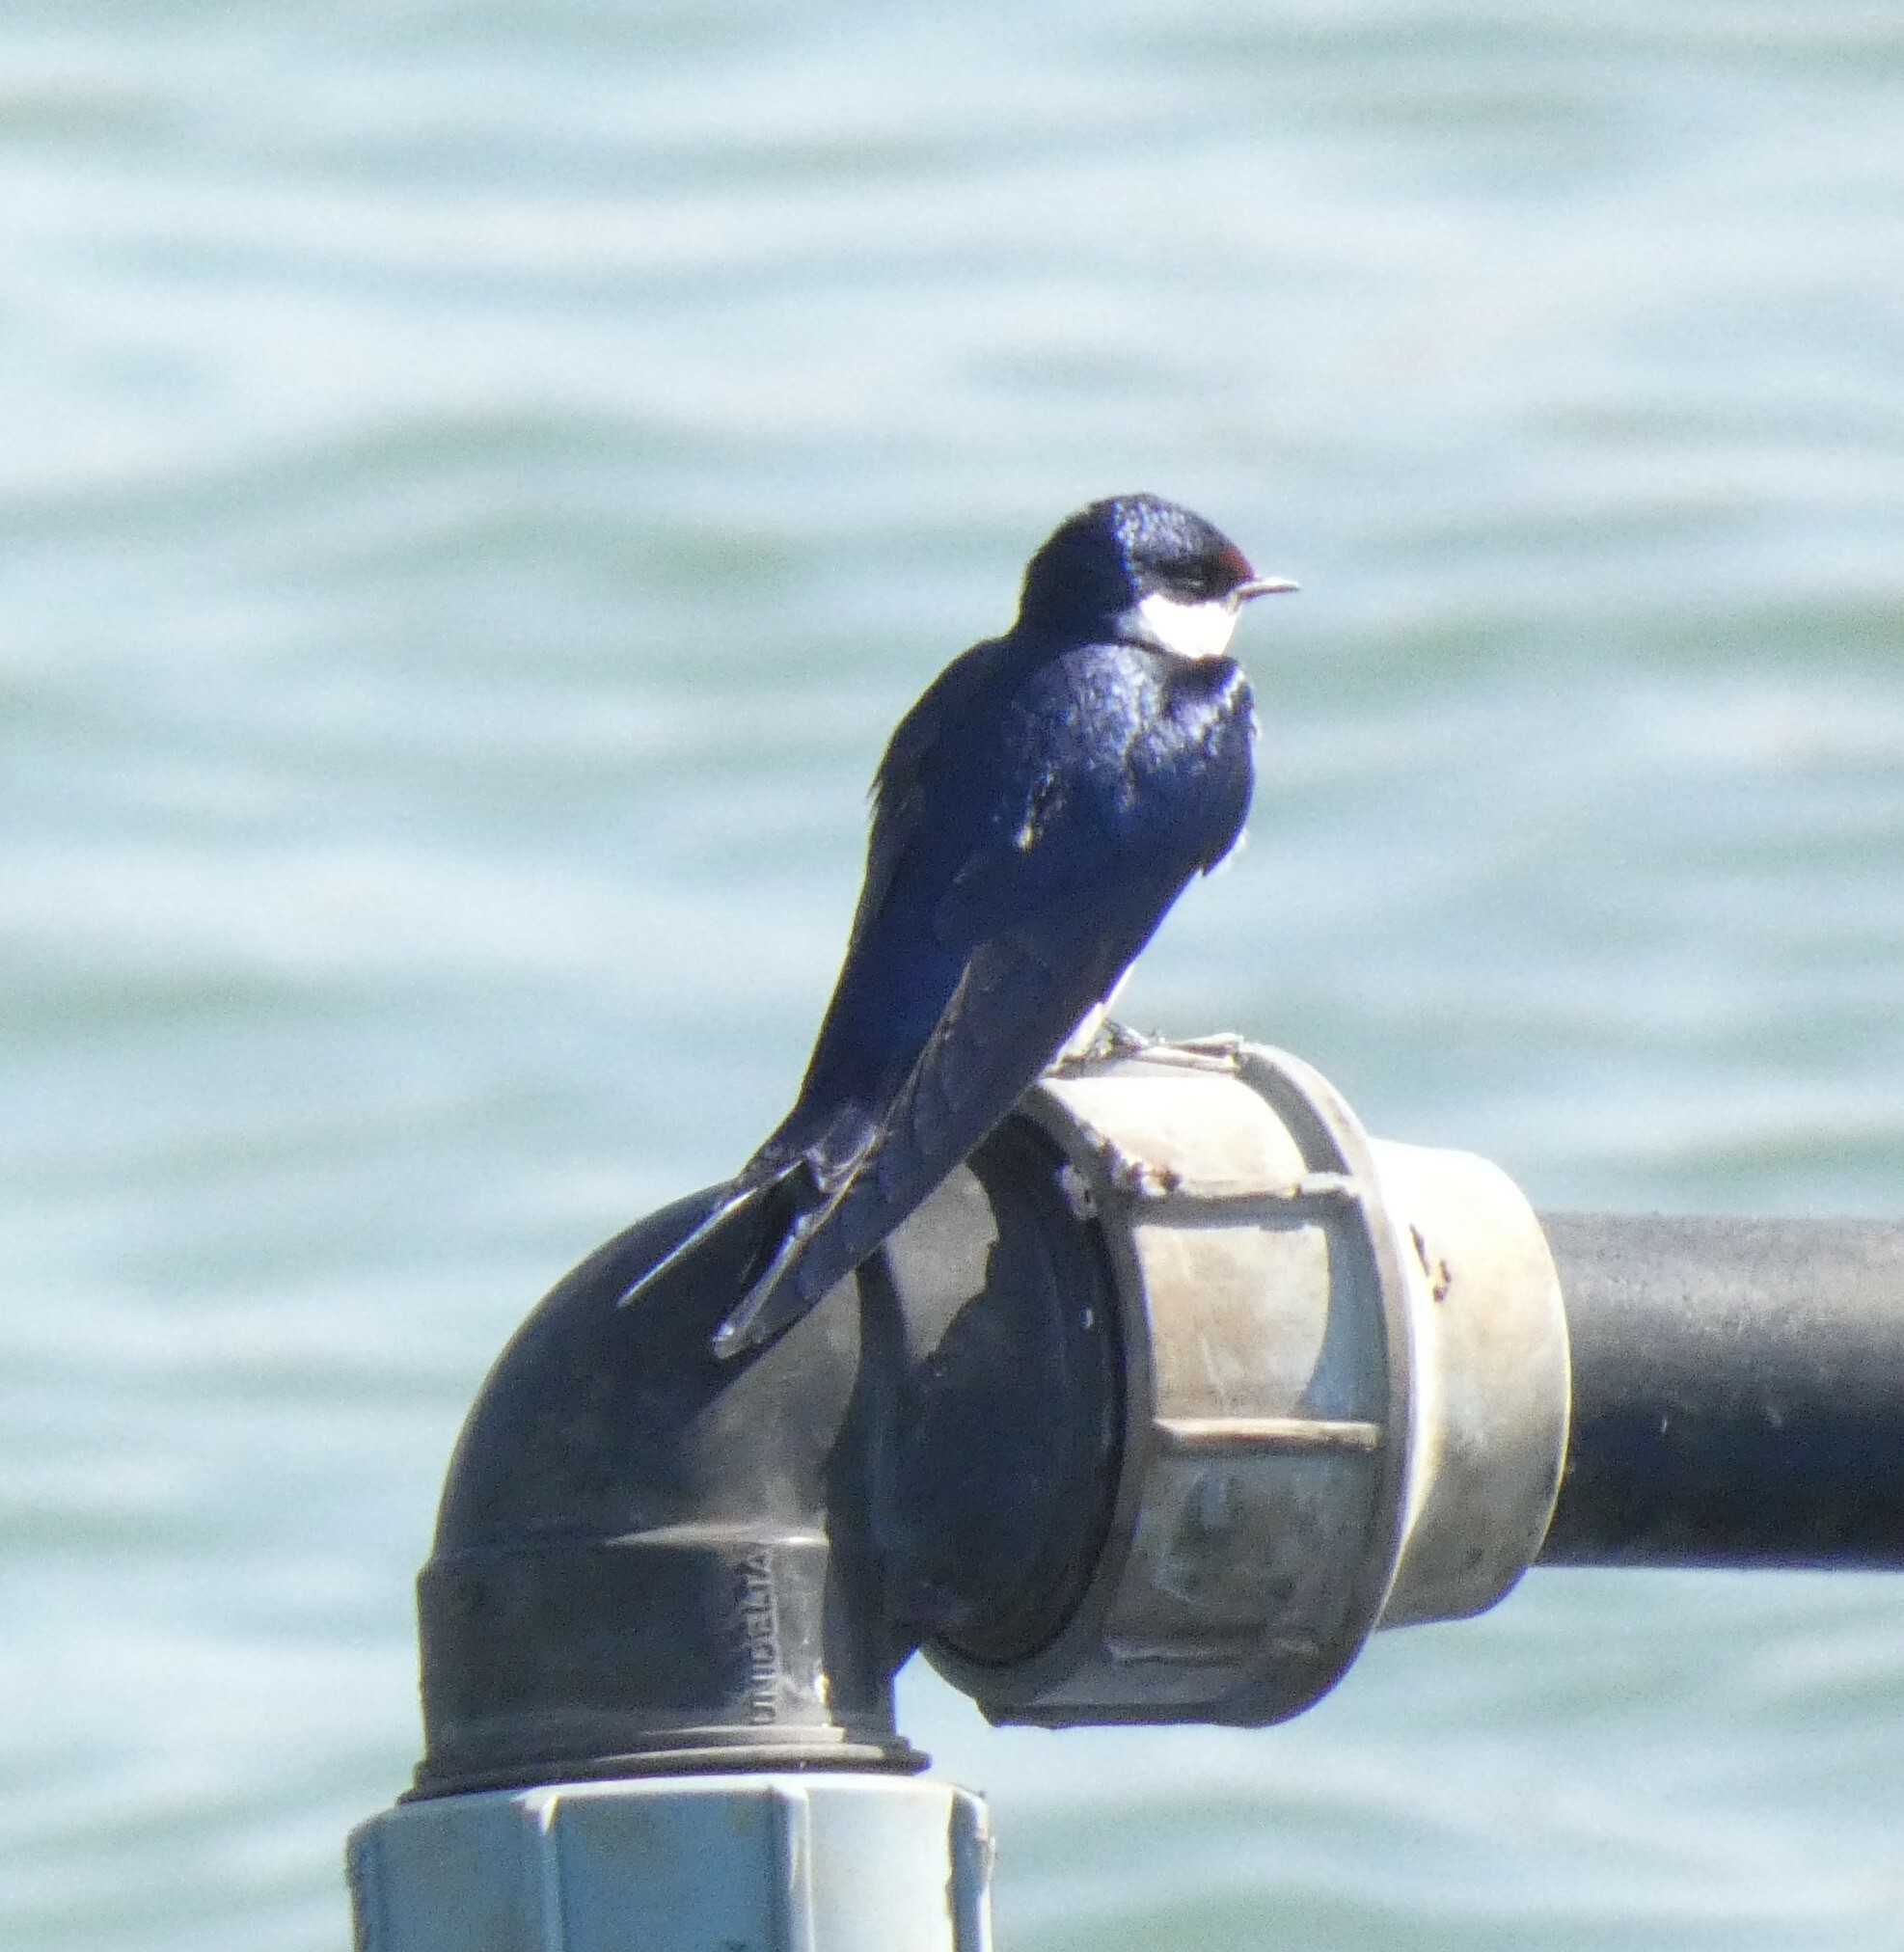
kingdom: Animalia
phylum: Chordata
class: Aves
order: Passeriformes
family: Hirundinidae
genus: Hirundo
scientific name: Hirundo albigularis
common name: White-throated swallow
